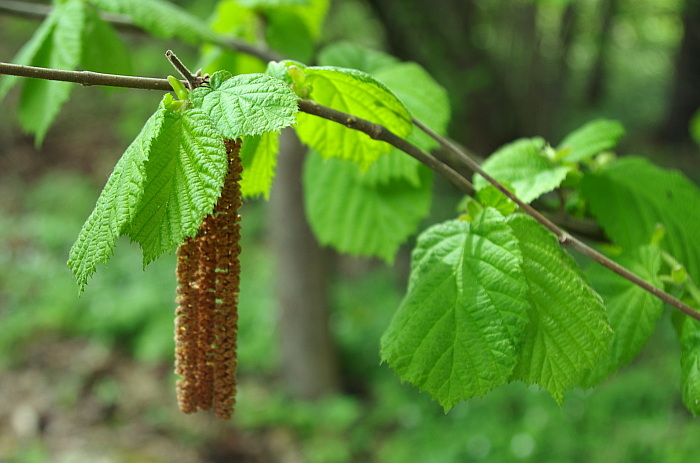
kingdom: Plantae
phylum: Tracheophyta
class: Magnoliopsida
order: Fagales
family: Betulaceae
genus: Corylus
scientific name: Corylus avellana
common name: European hazel
